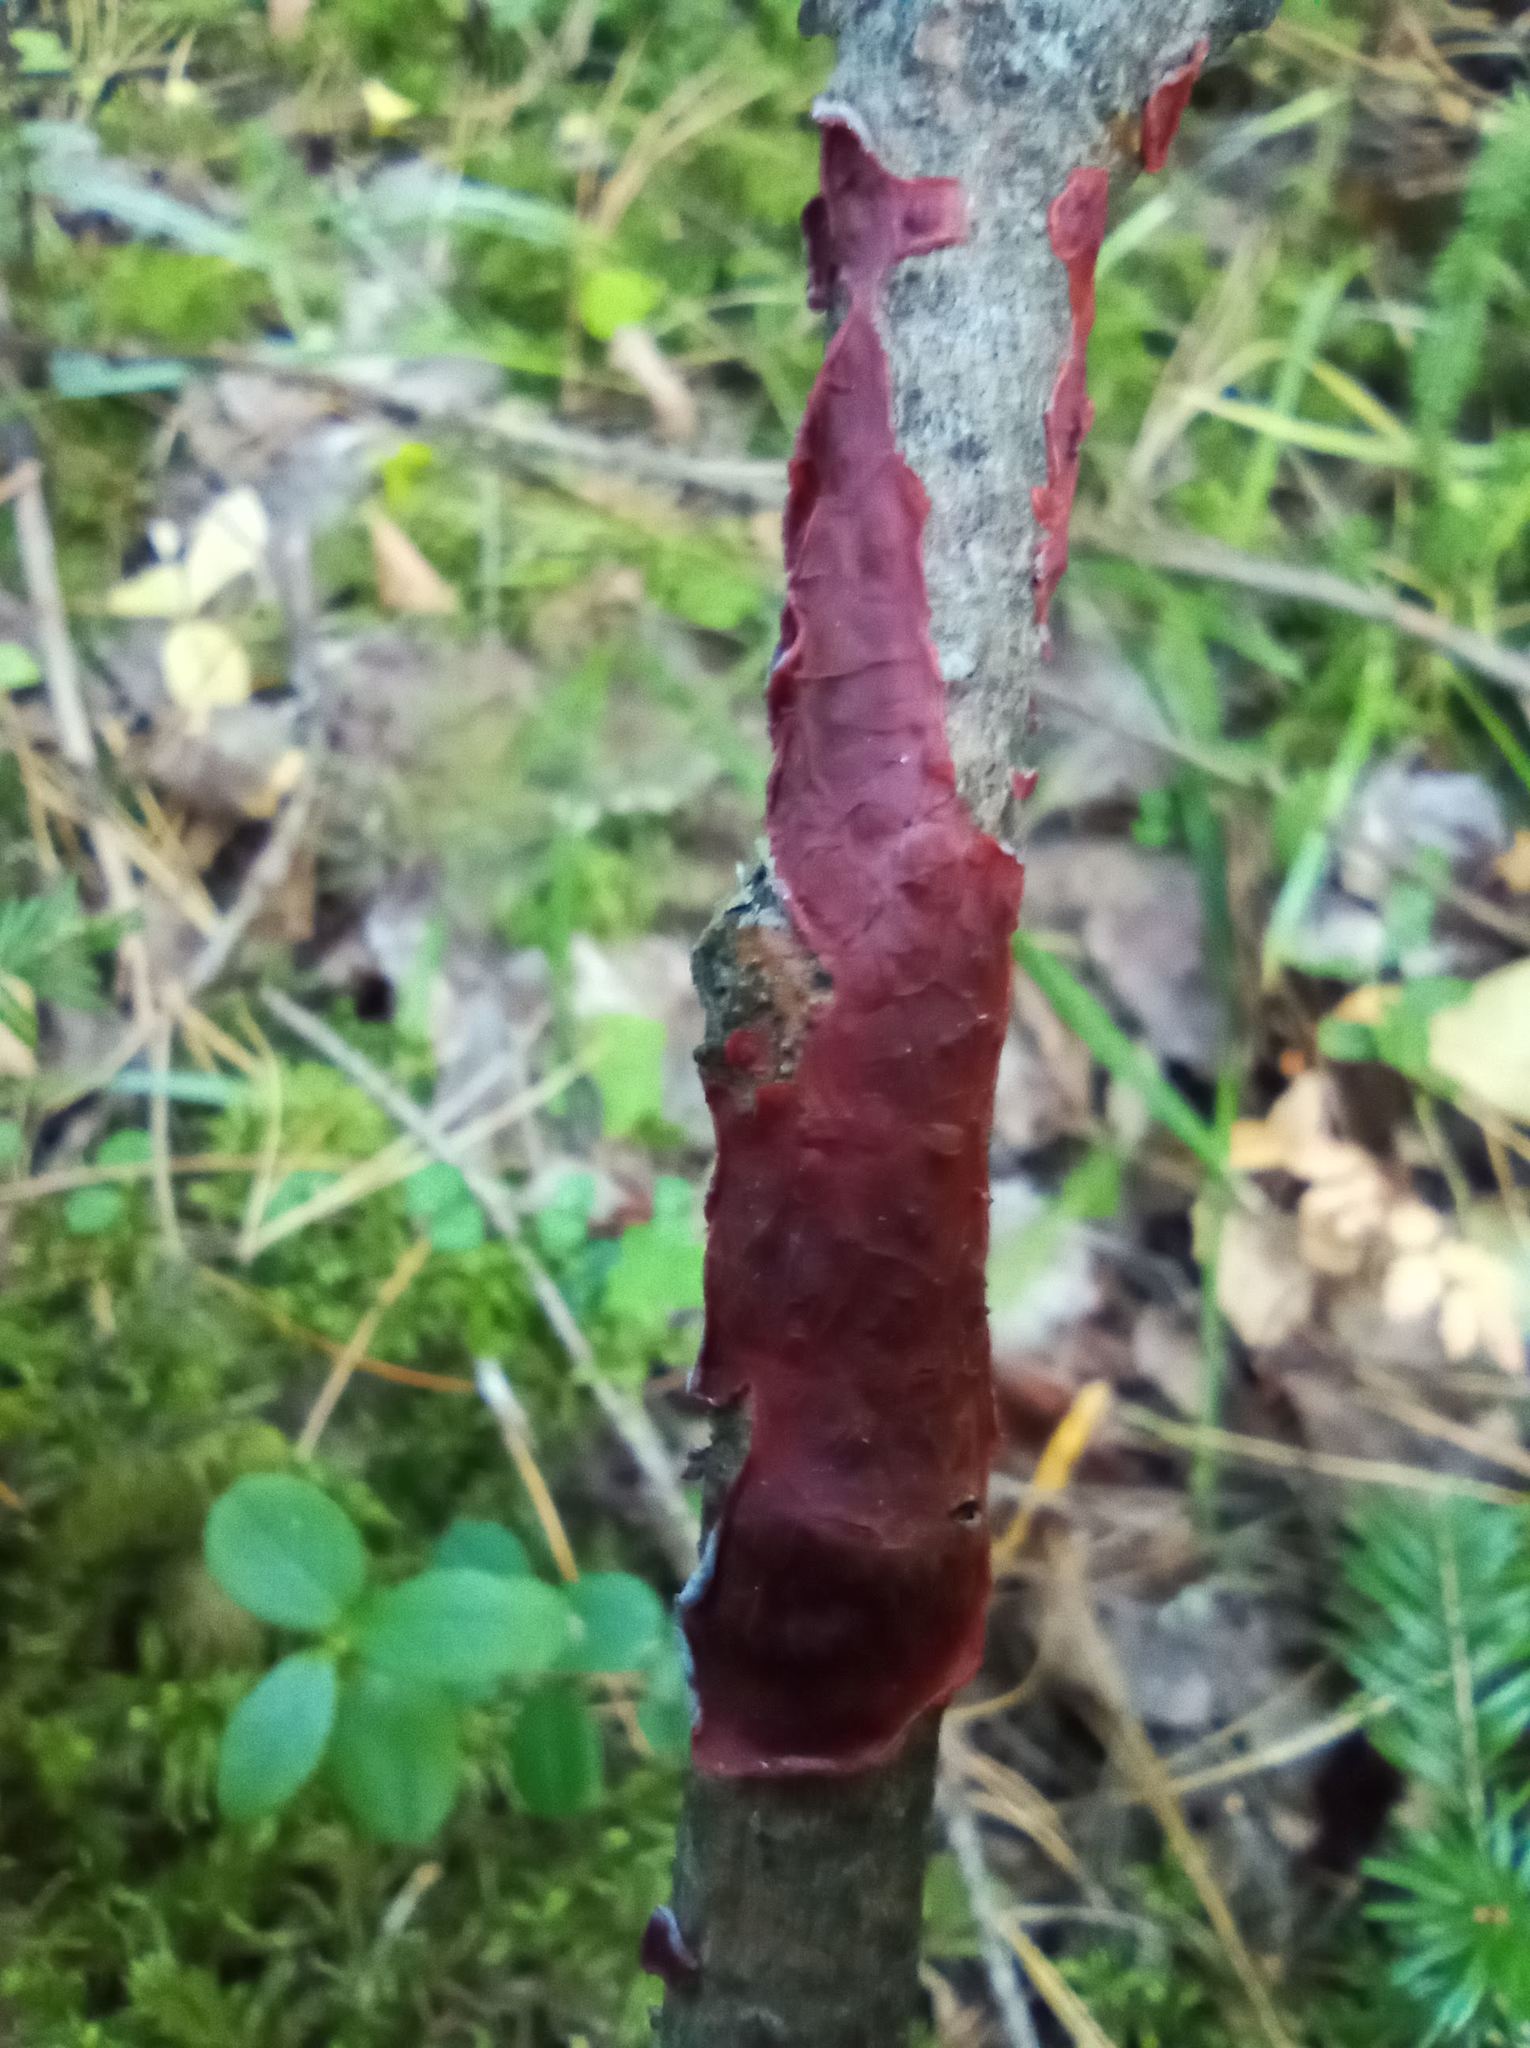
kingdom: Fungi
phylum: Basidiomycota
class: Agaricomycetes
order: Corticiales
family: Vuilleminiaceae
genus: Cytidia
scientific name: Cytidia salicina
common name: Scarlet splash
